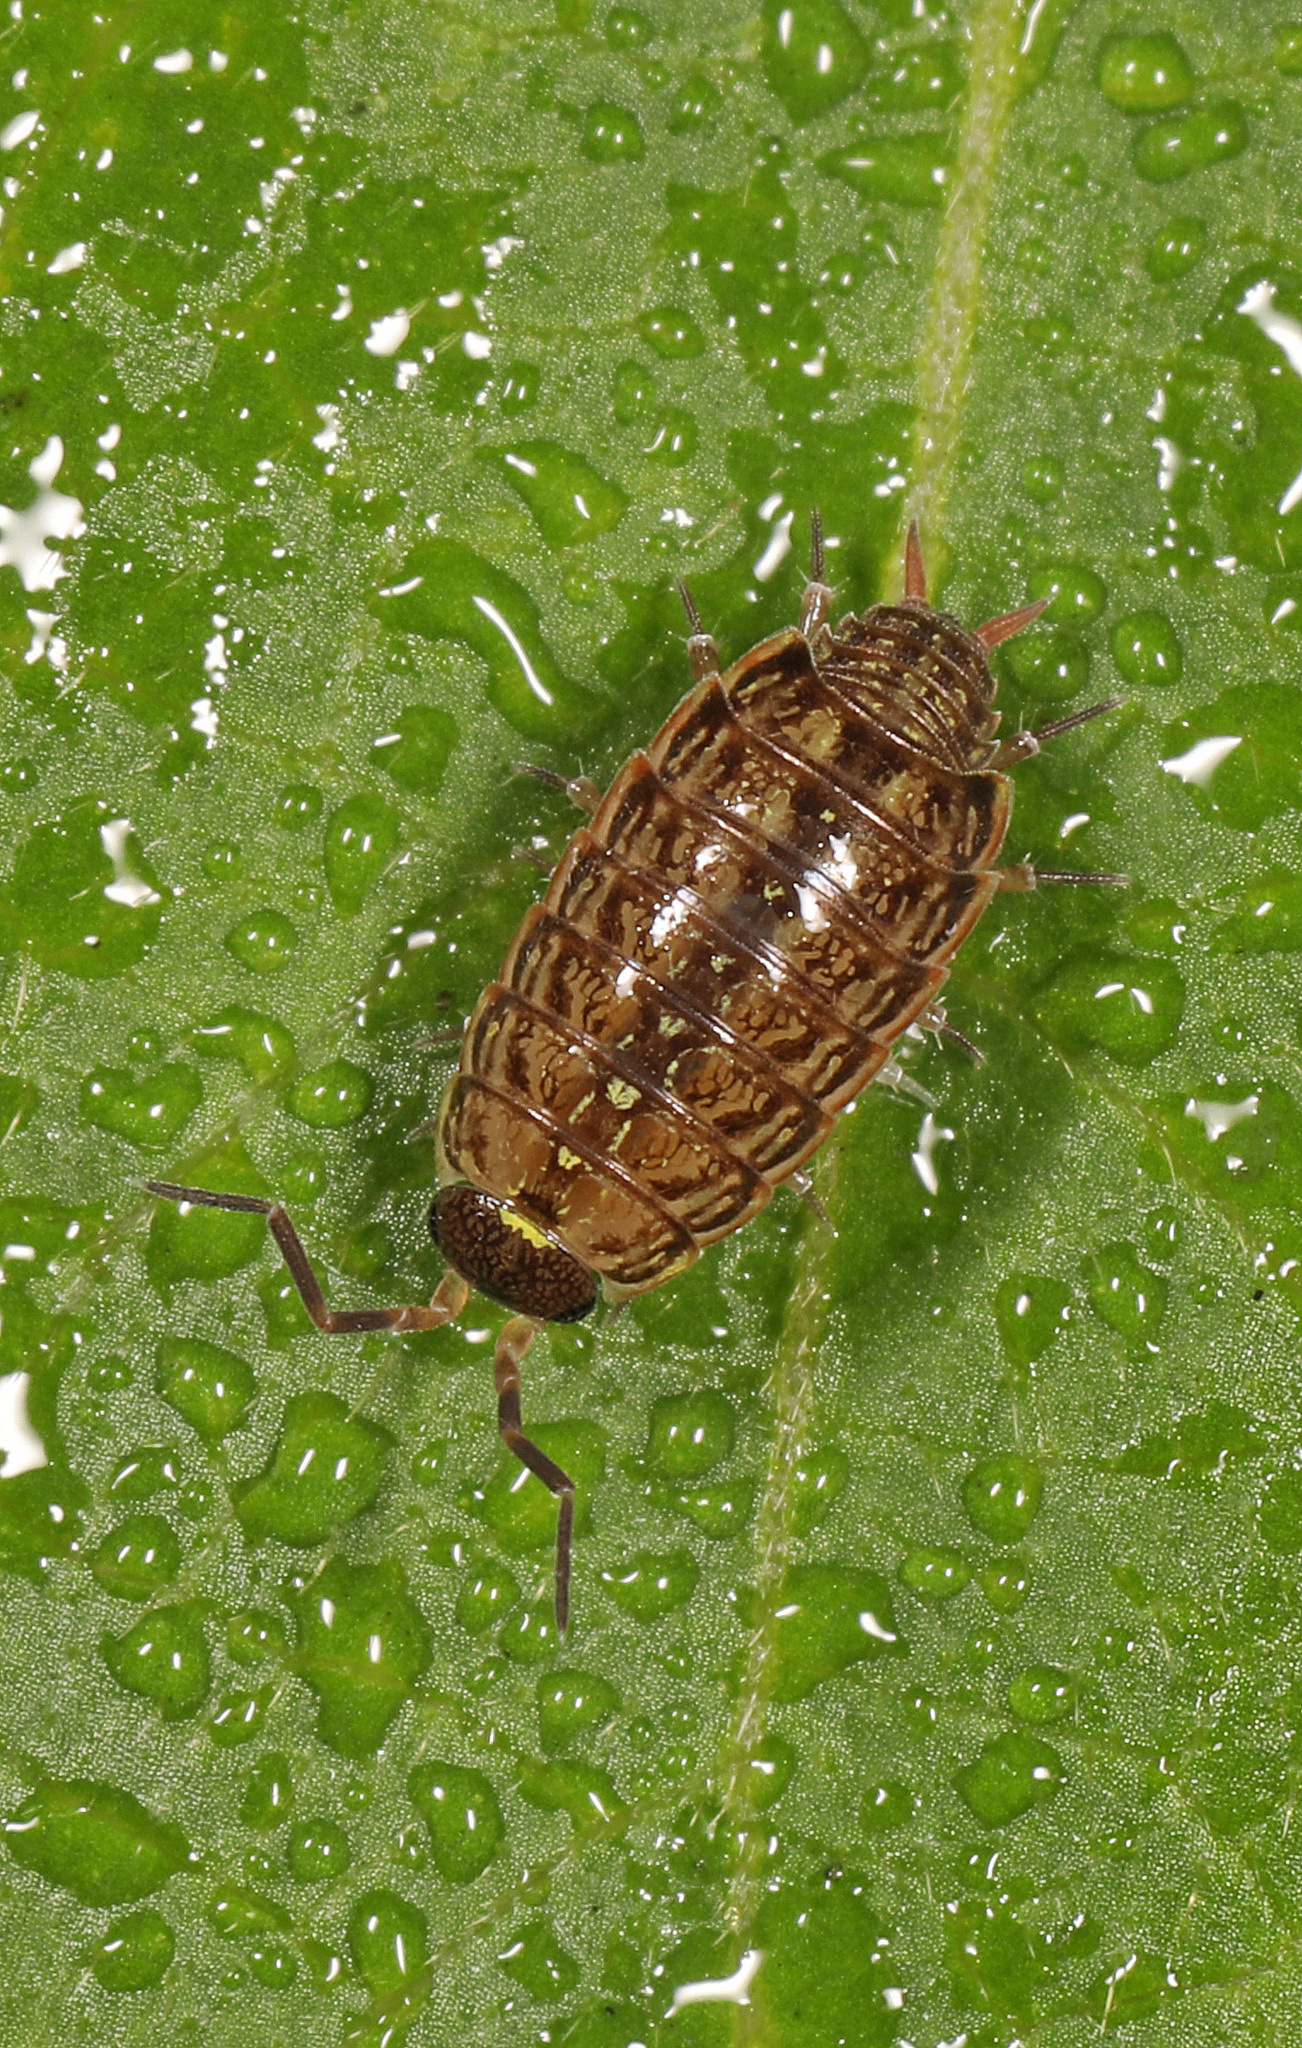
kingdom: Animalia
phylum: Arthropoda
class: Malacostraca
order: Isopoda
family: Philosciidae
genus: Philoscia
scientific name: Philoscia muscorum
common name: Common striped woodlouse
